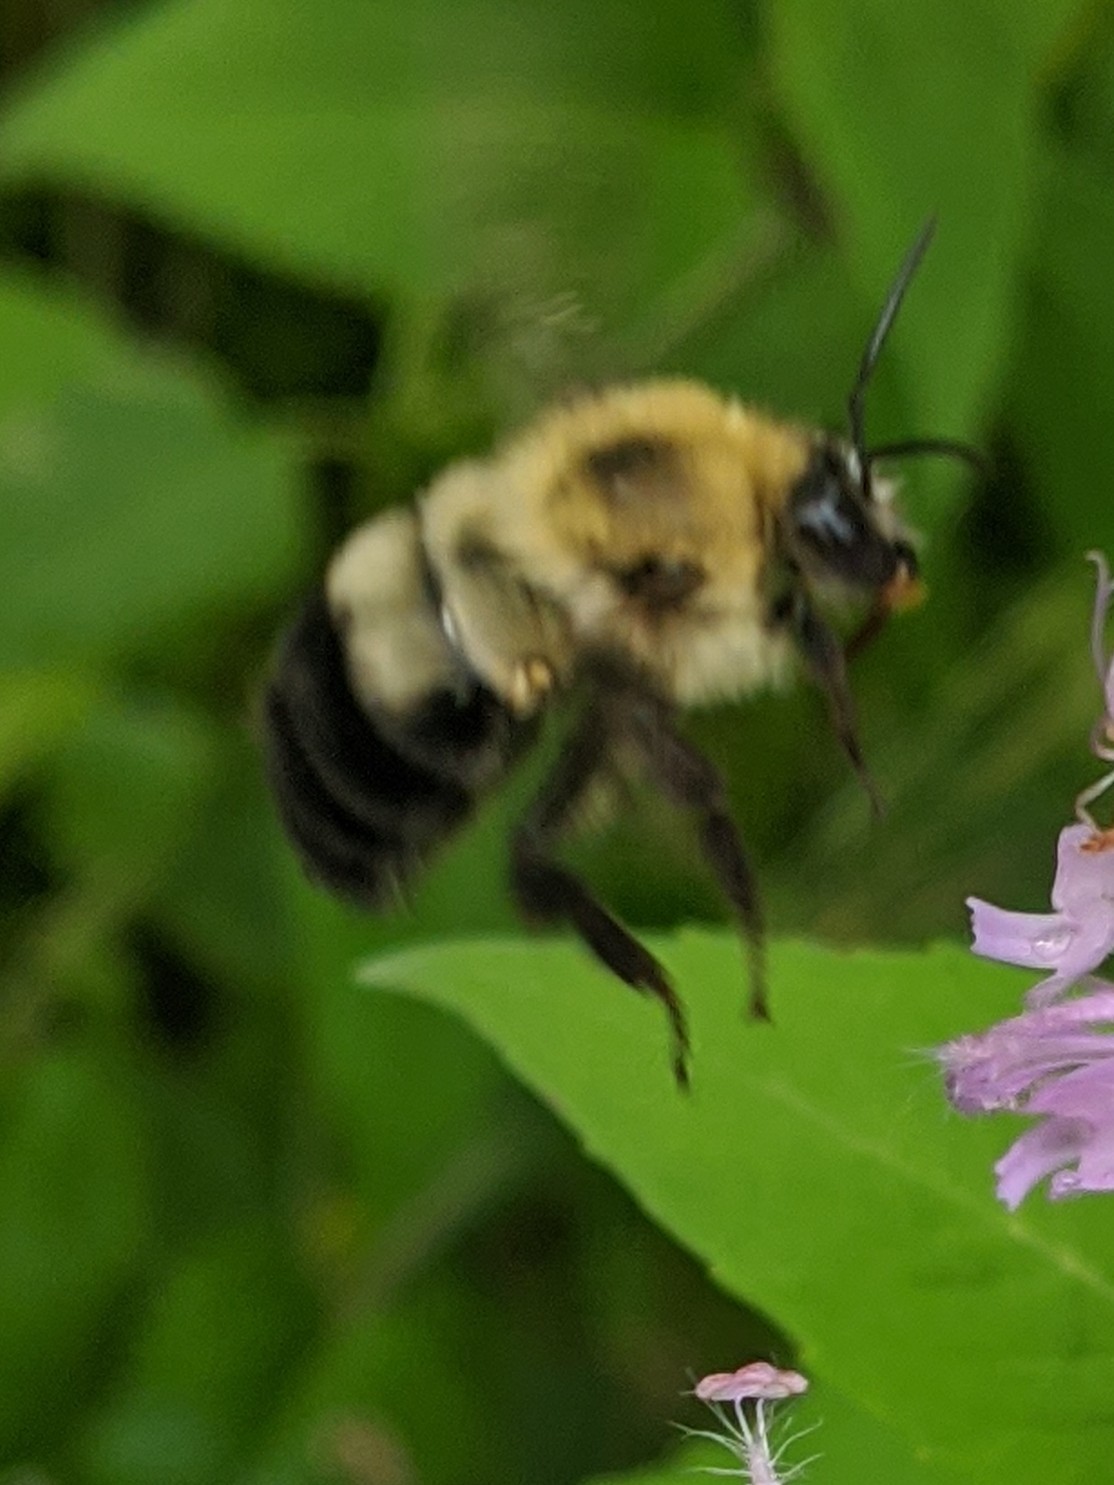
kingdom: Animalia
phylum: Arthropoda
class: Insecta
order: Hymenoptera
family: Apidae
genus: Bombus
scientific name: Bombus bimaculatus
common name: Two-spotted bumble bee
